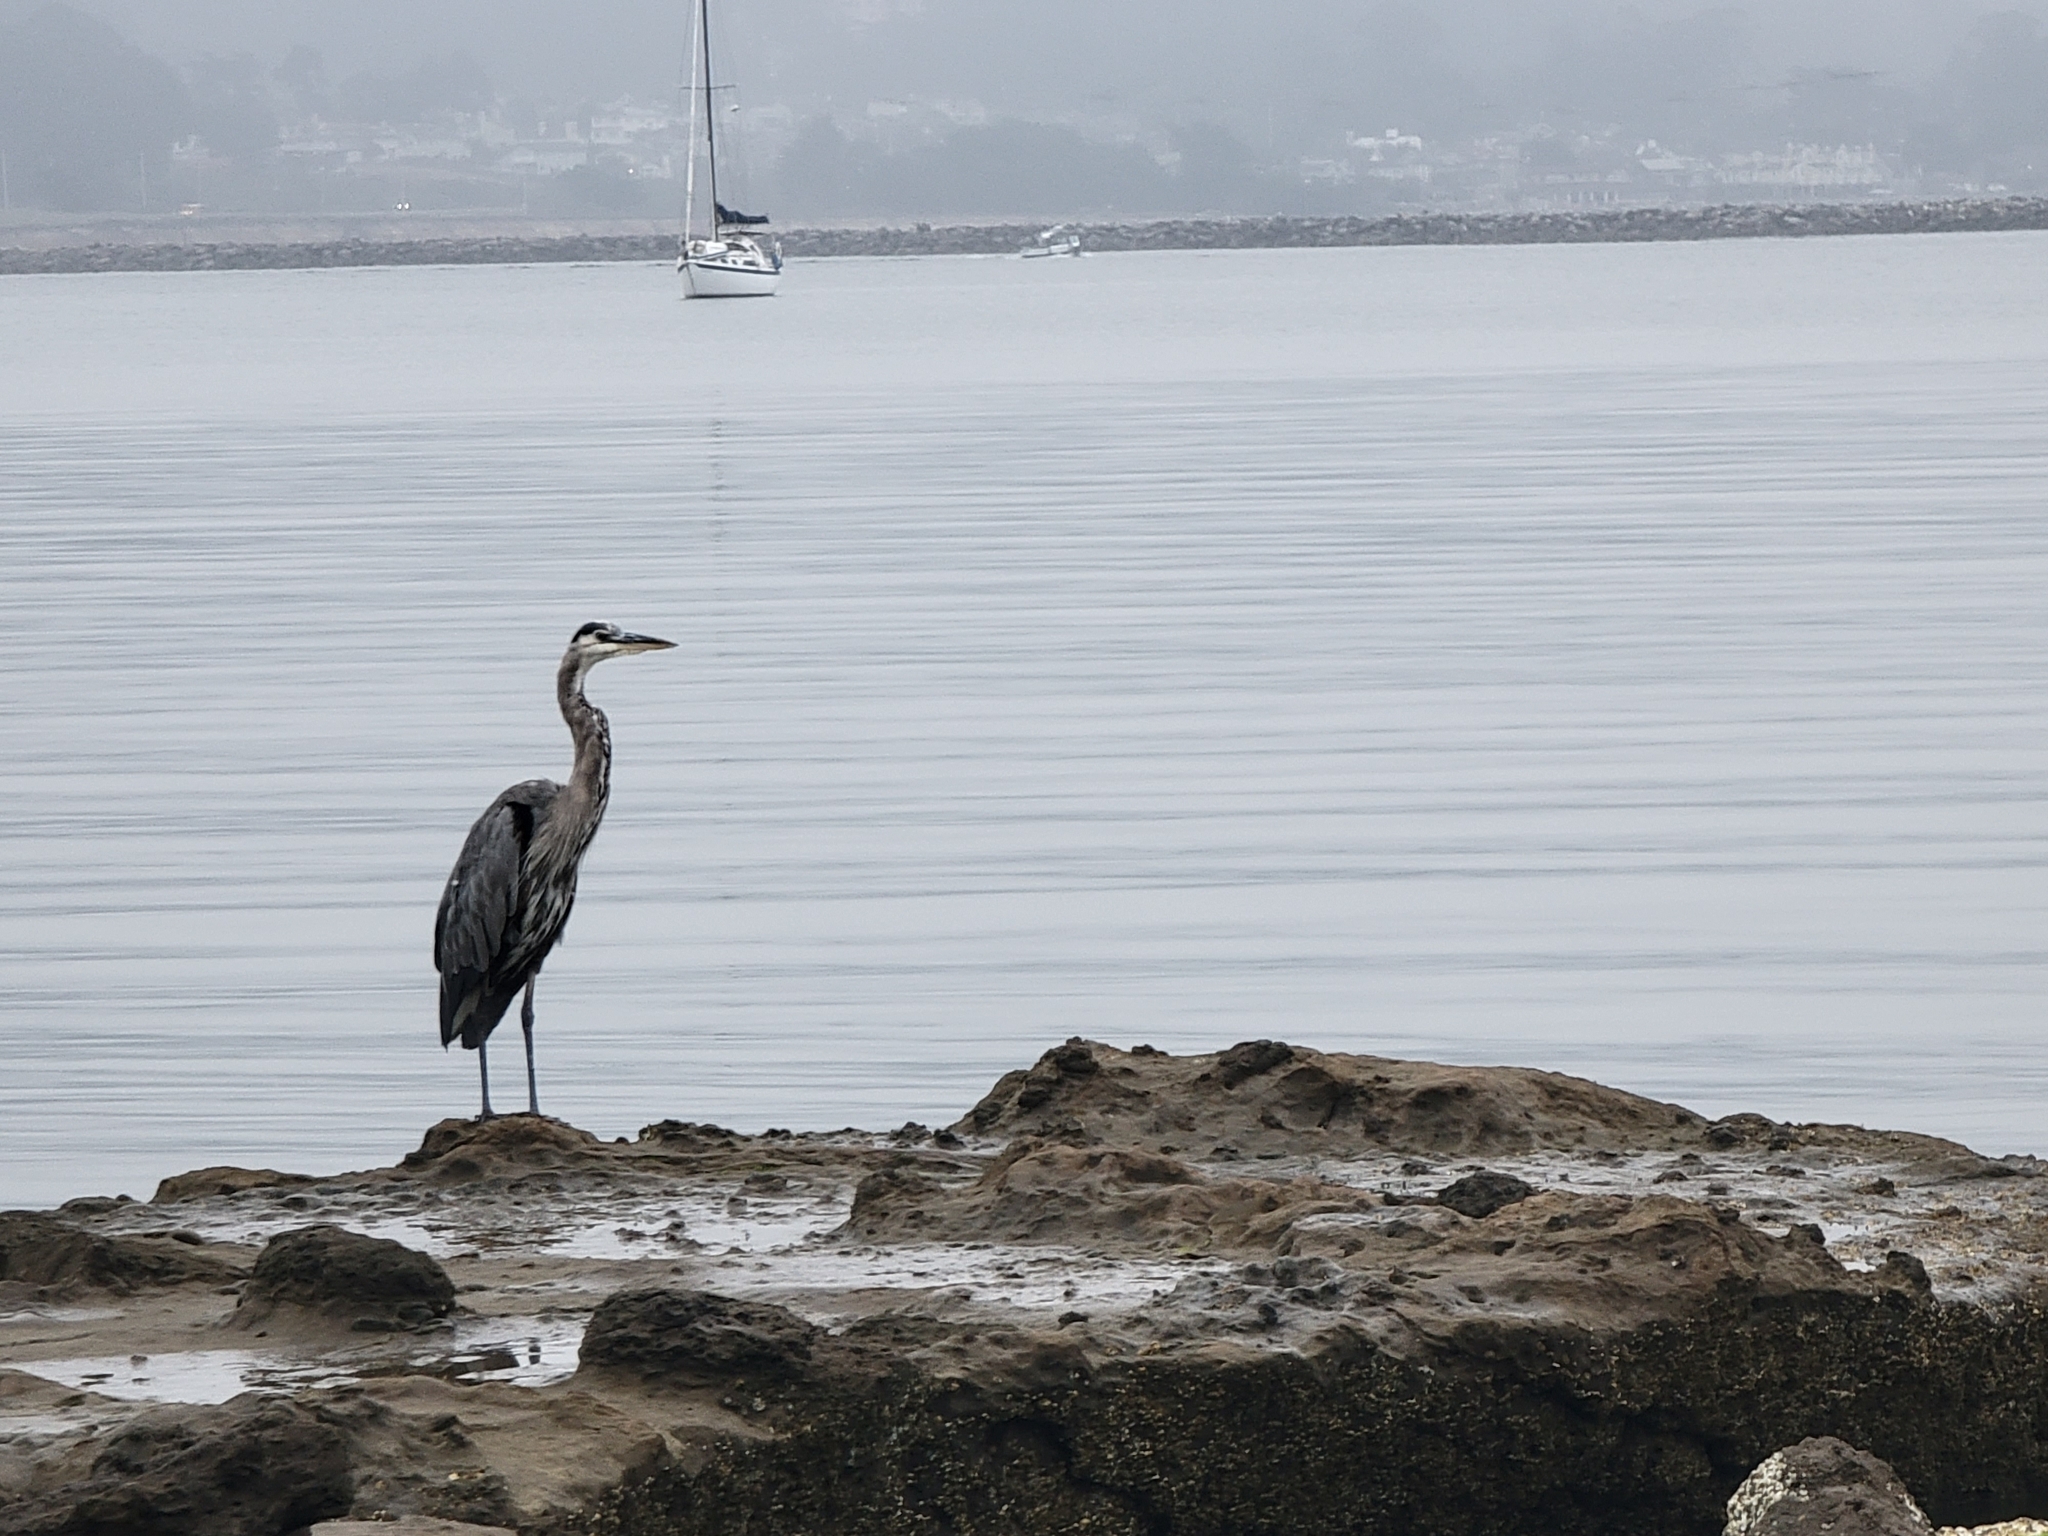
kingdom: Animalia
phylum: Chordata
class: Aves
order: Pelecaniformes
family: Ardeidae
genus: Ardea
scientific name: Ardea herodias
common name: Great blue heron
